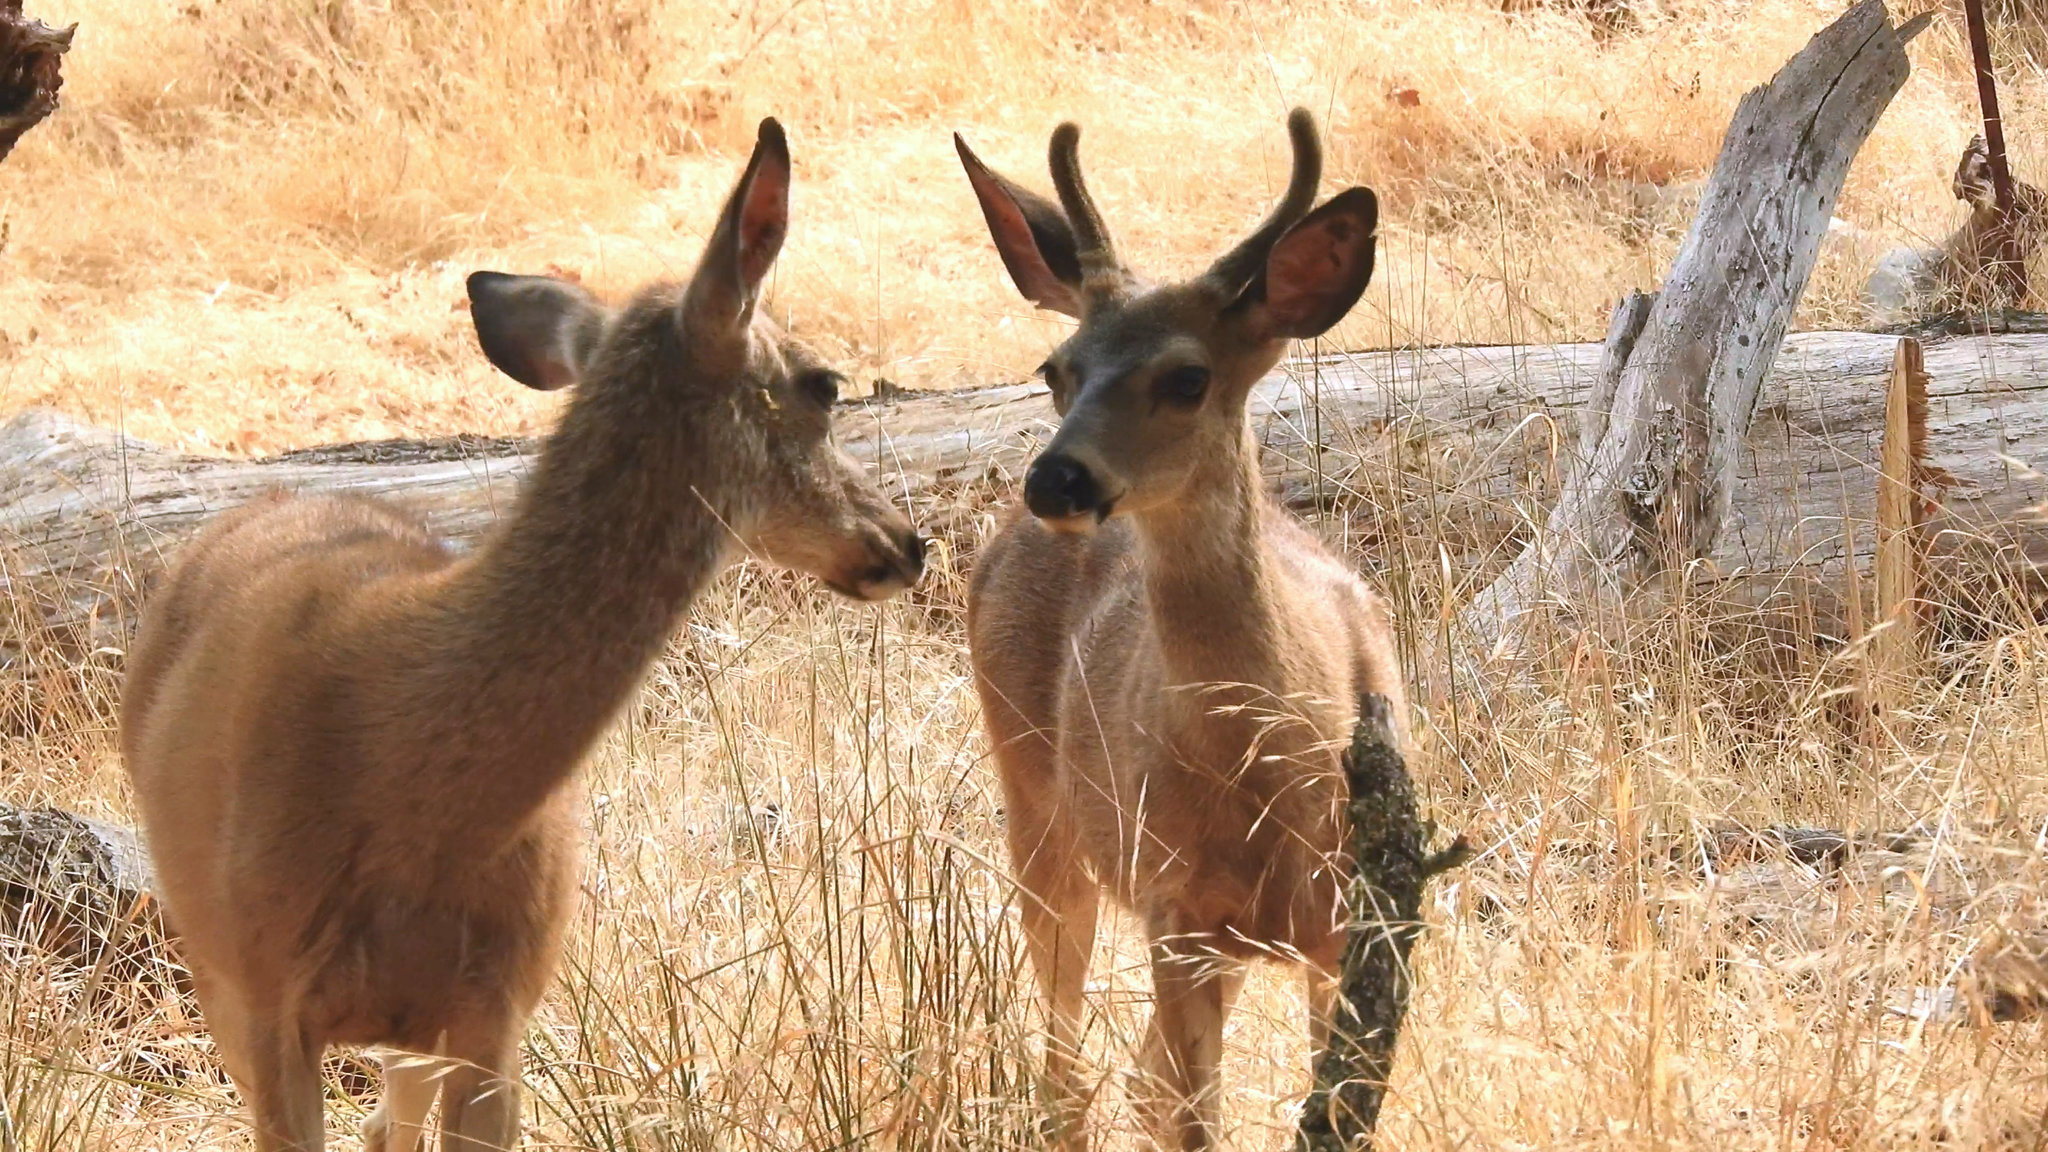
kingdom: Animalia
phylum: Chordata
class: Mammalia
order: Artiodactyla
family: Cervidae
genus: Odocoileus
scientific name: Odocoileus hemionus
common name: Mule deer
